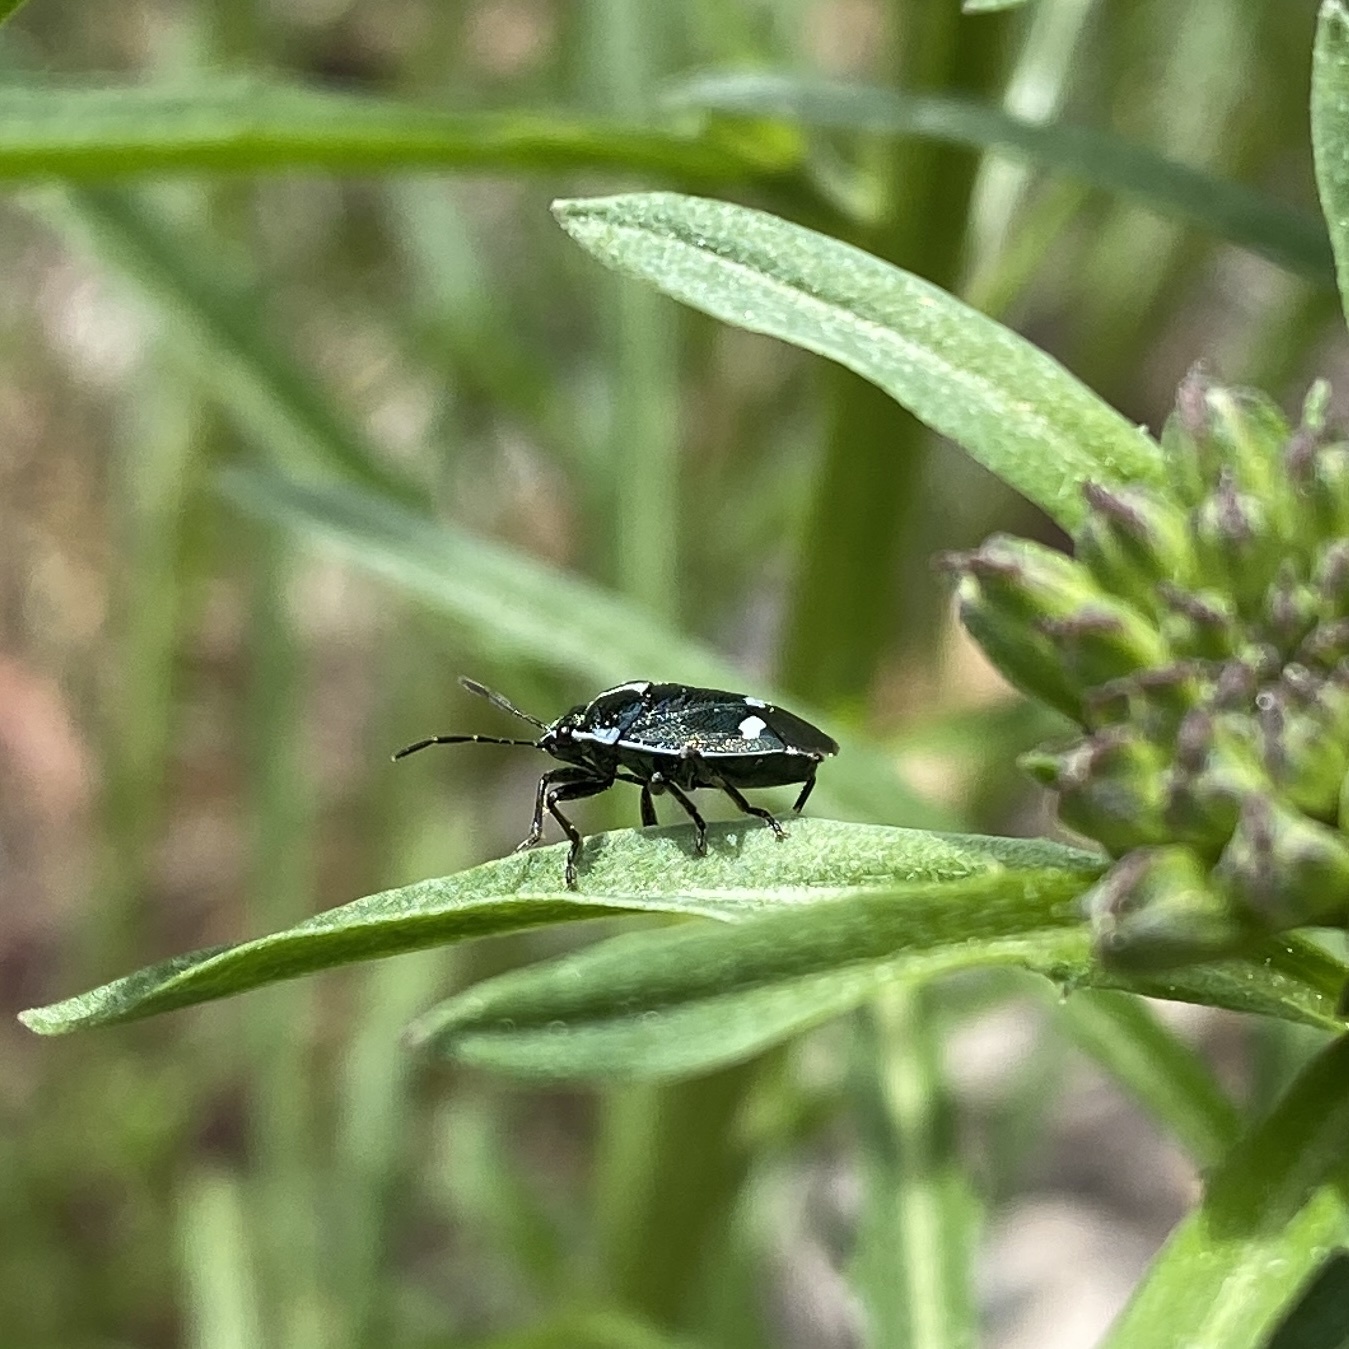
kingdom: Animalia
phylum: Arthropoda
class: Insecta
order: Hemiptera
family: Pentatomidae
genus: Eurydema
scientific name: Eurydema oleracea
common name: Cabbage bug
